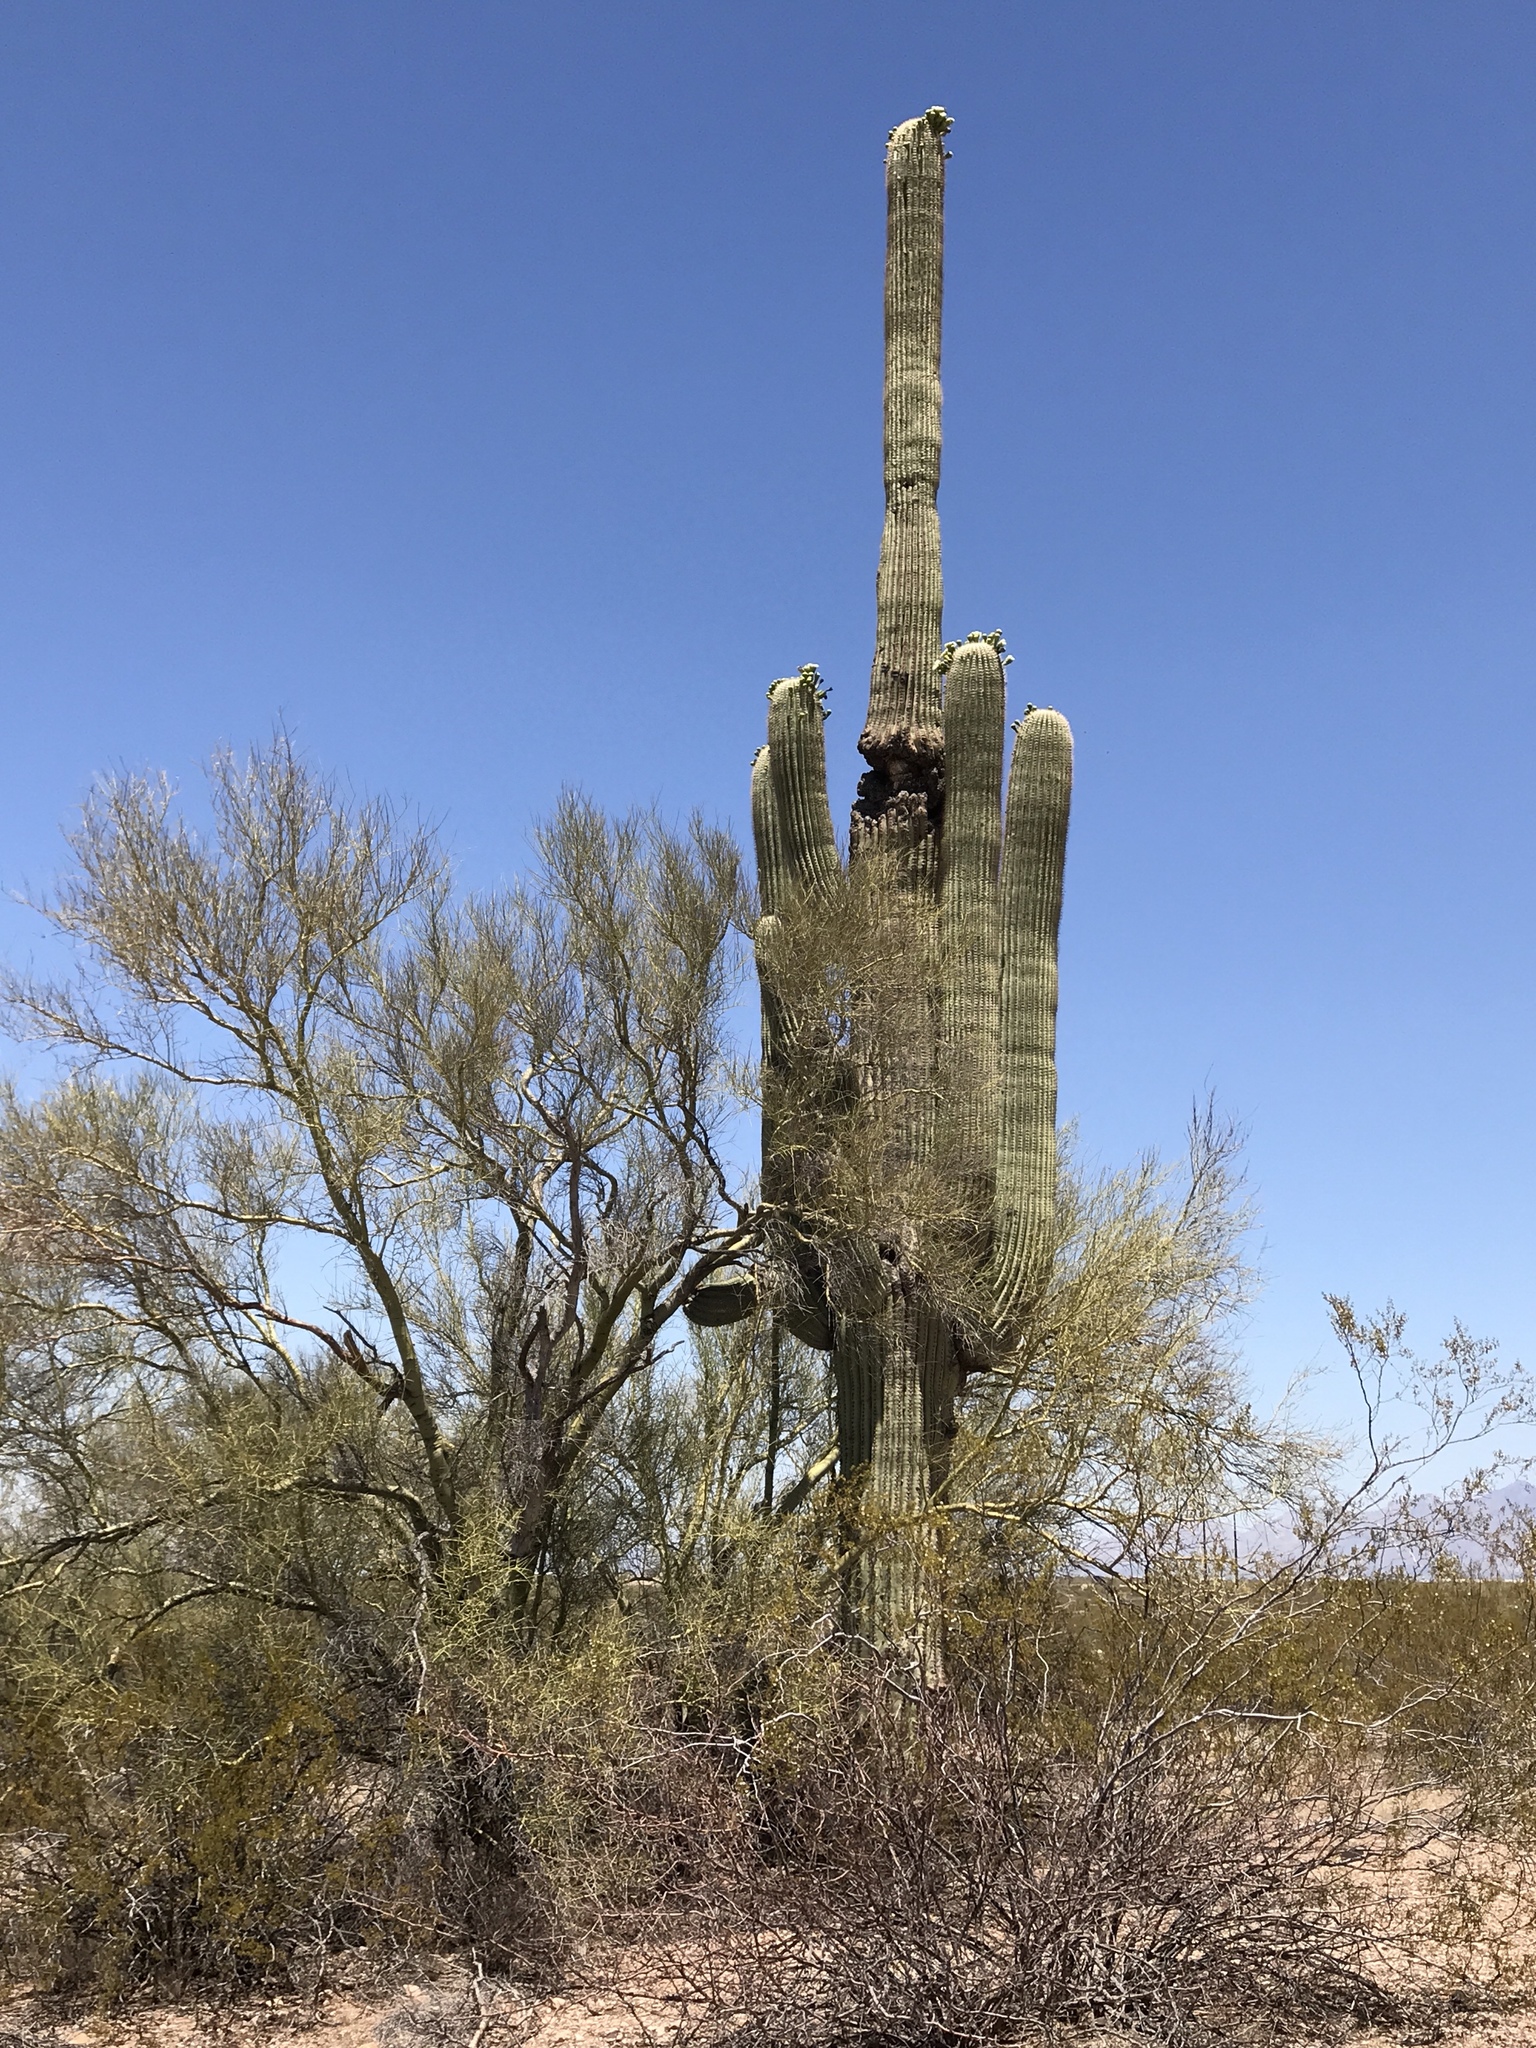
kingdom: Plantae
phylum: Tracheophyta
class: Magnoliopsida
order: Caryophyllales
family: Cactaceae
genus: Carnegiea
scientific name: Carnegiea gigantea
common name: Saguaro
